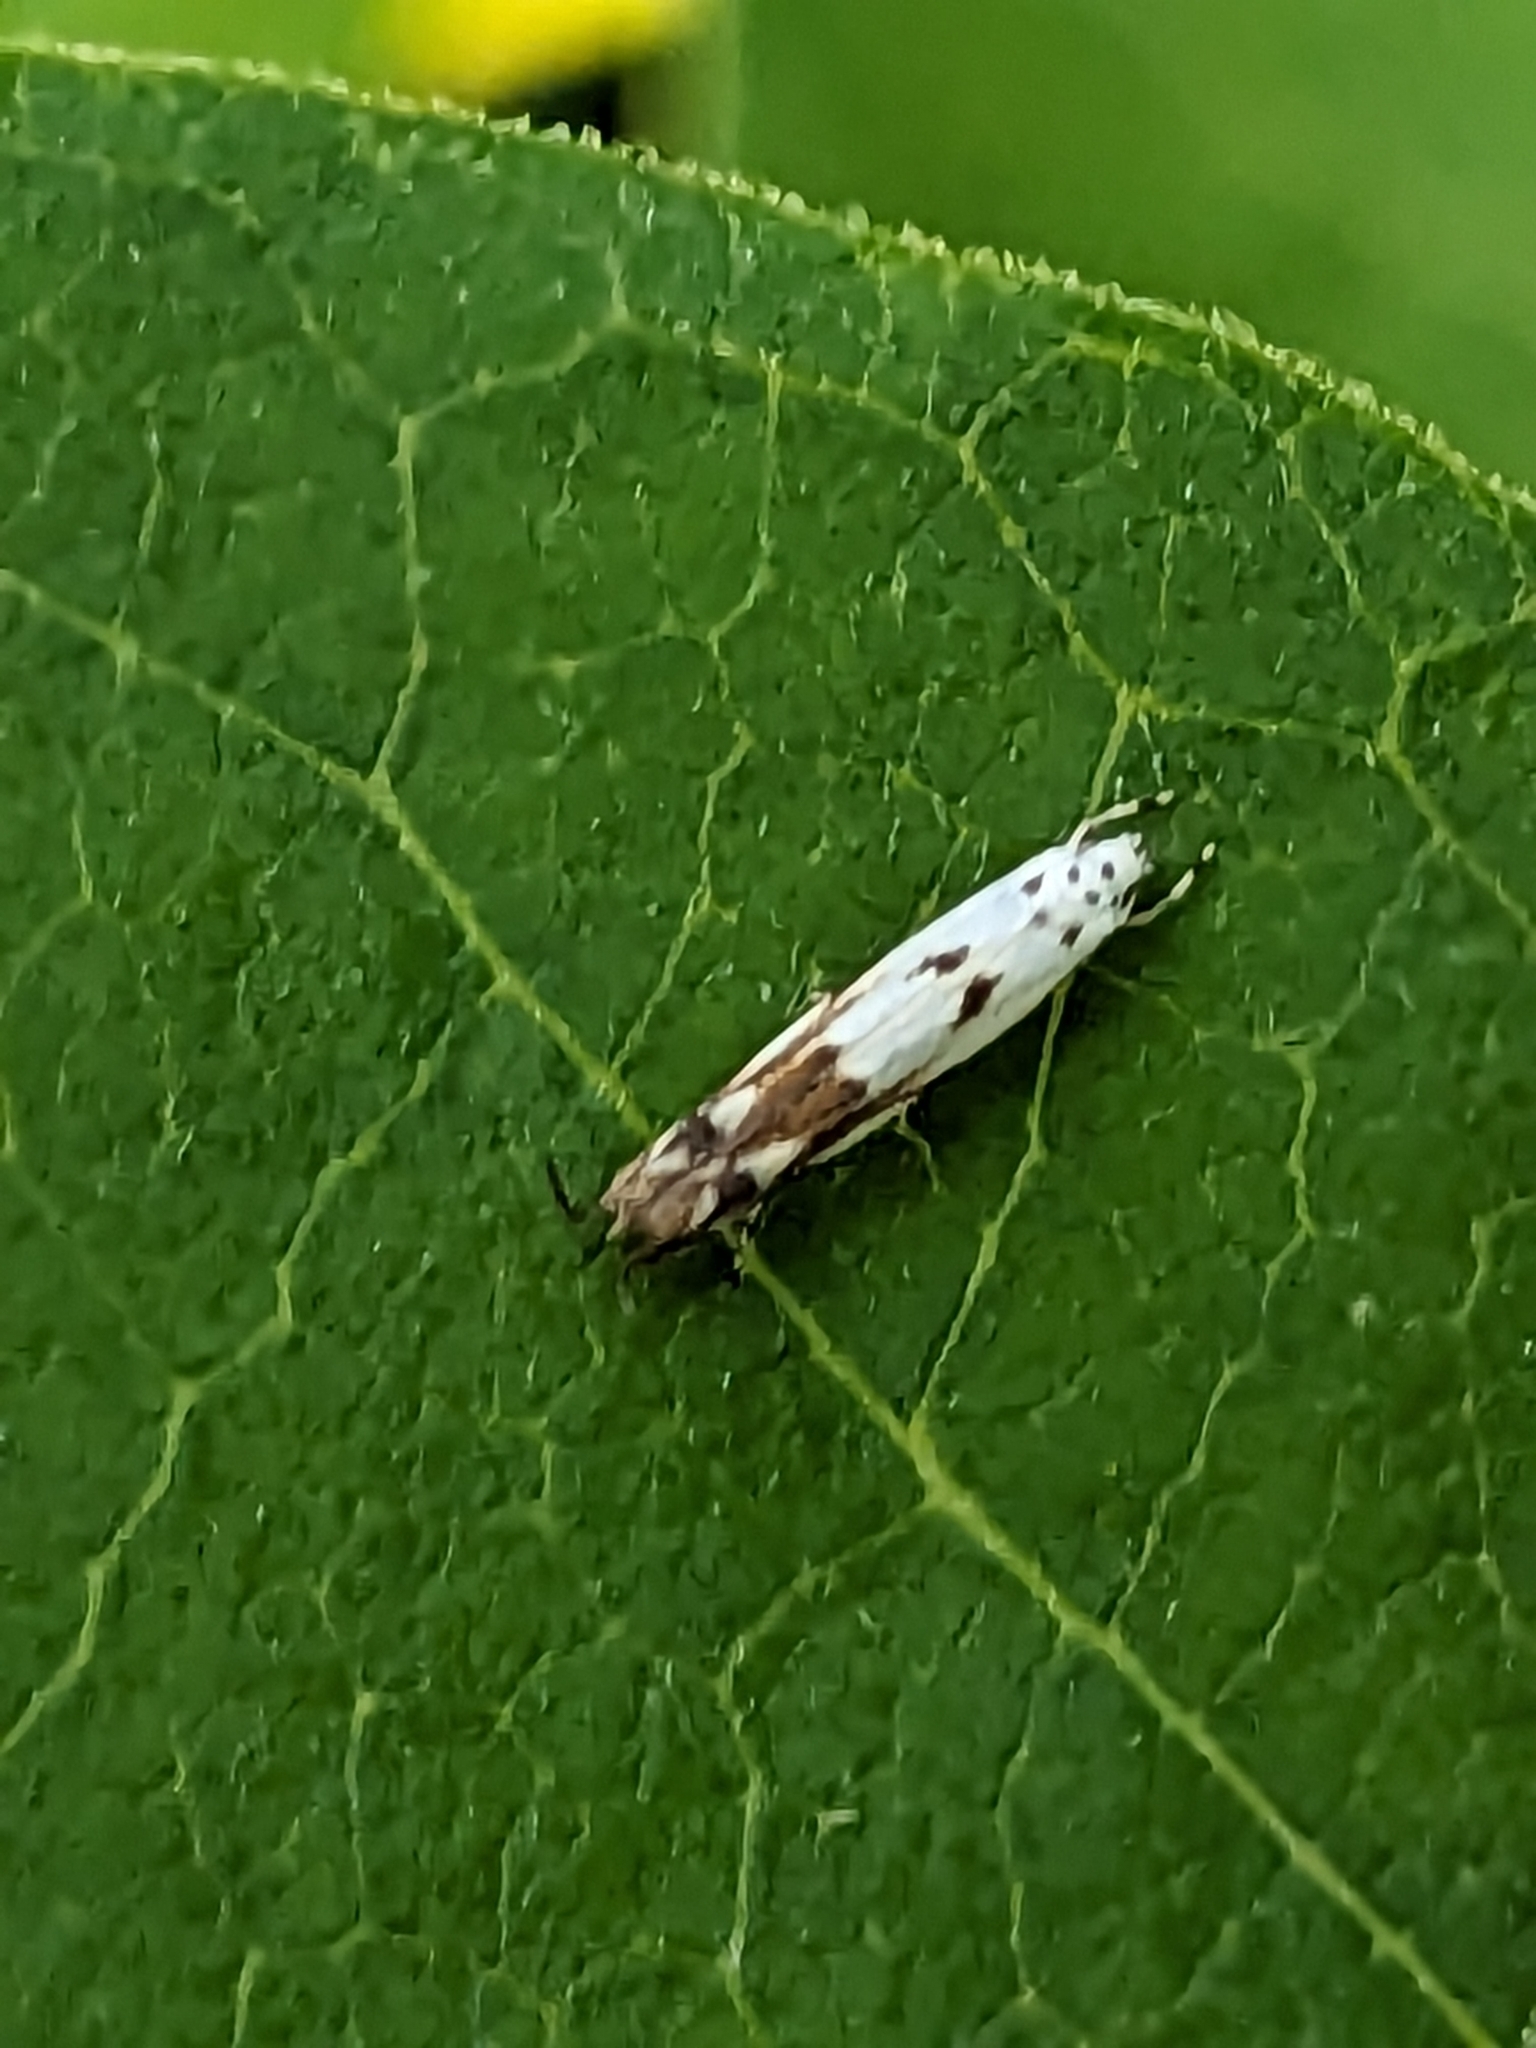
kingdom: Animalia
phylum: Arthropoda
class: Insecta
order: Lepidoptera
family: Momphidae
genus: Mompha
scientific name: Mompha eloisella
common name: Red-streaked mompha moth
